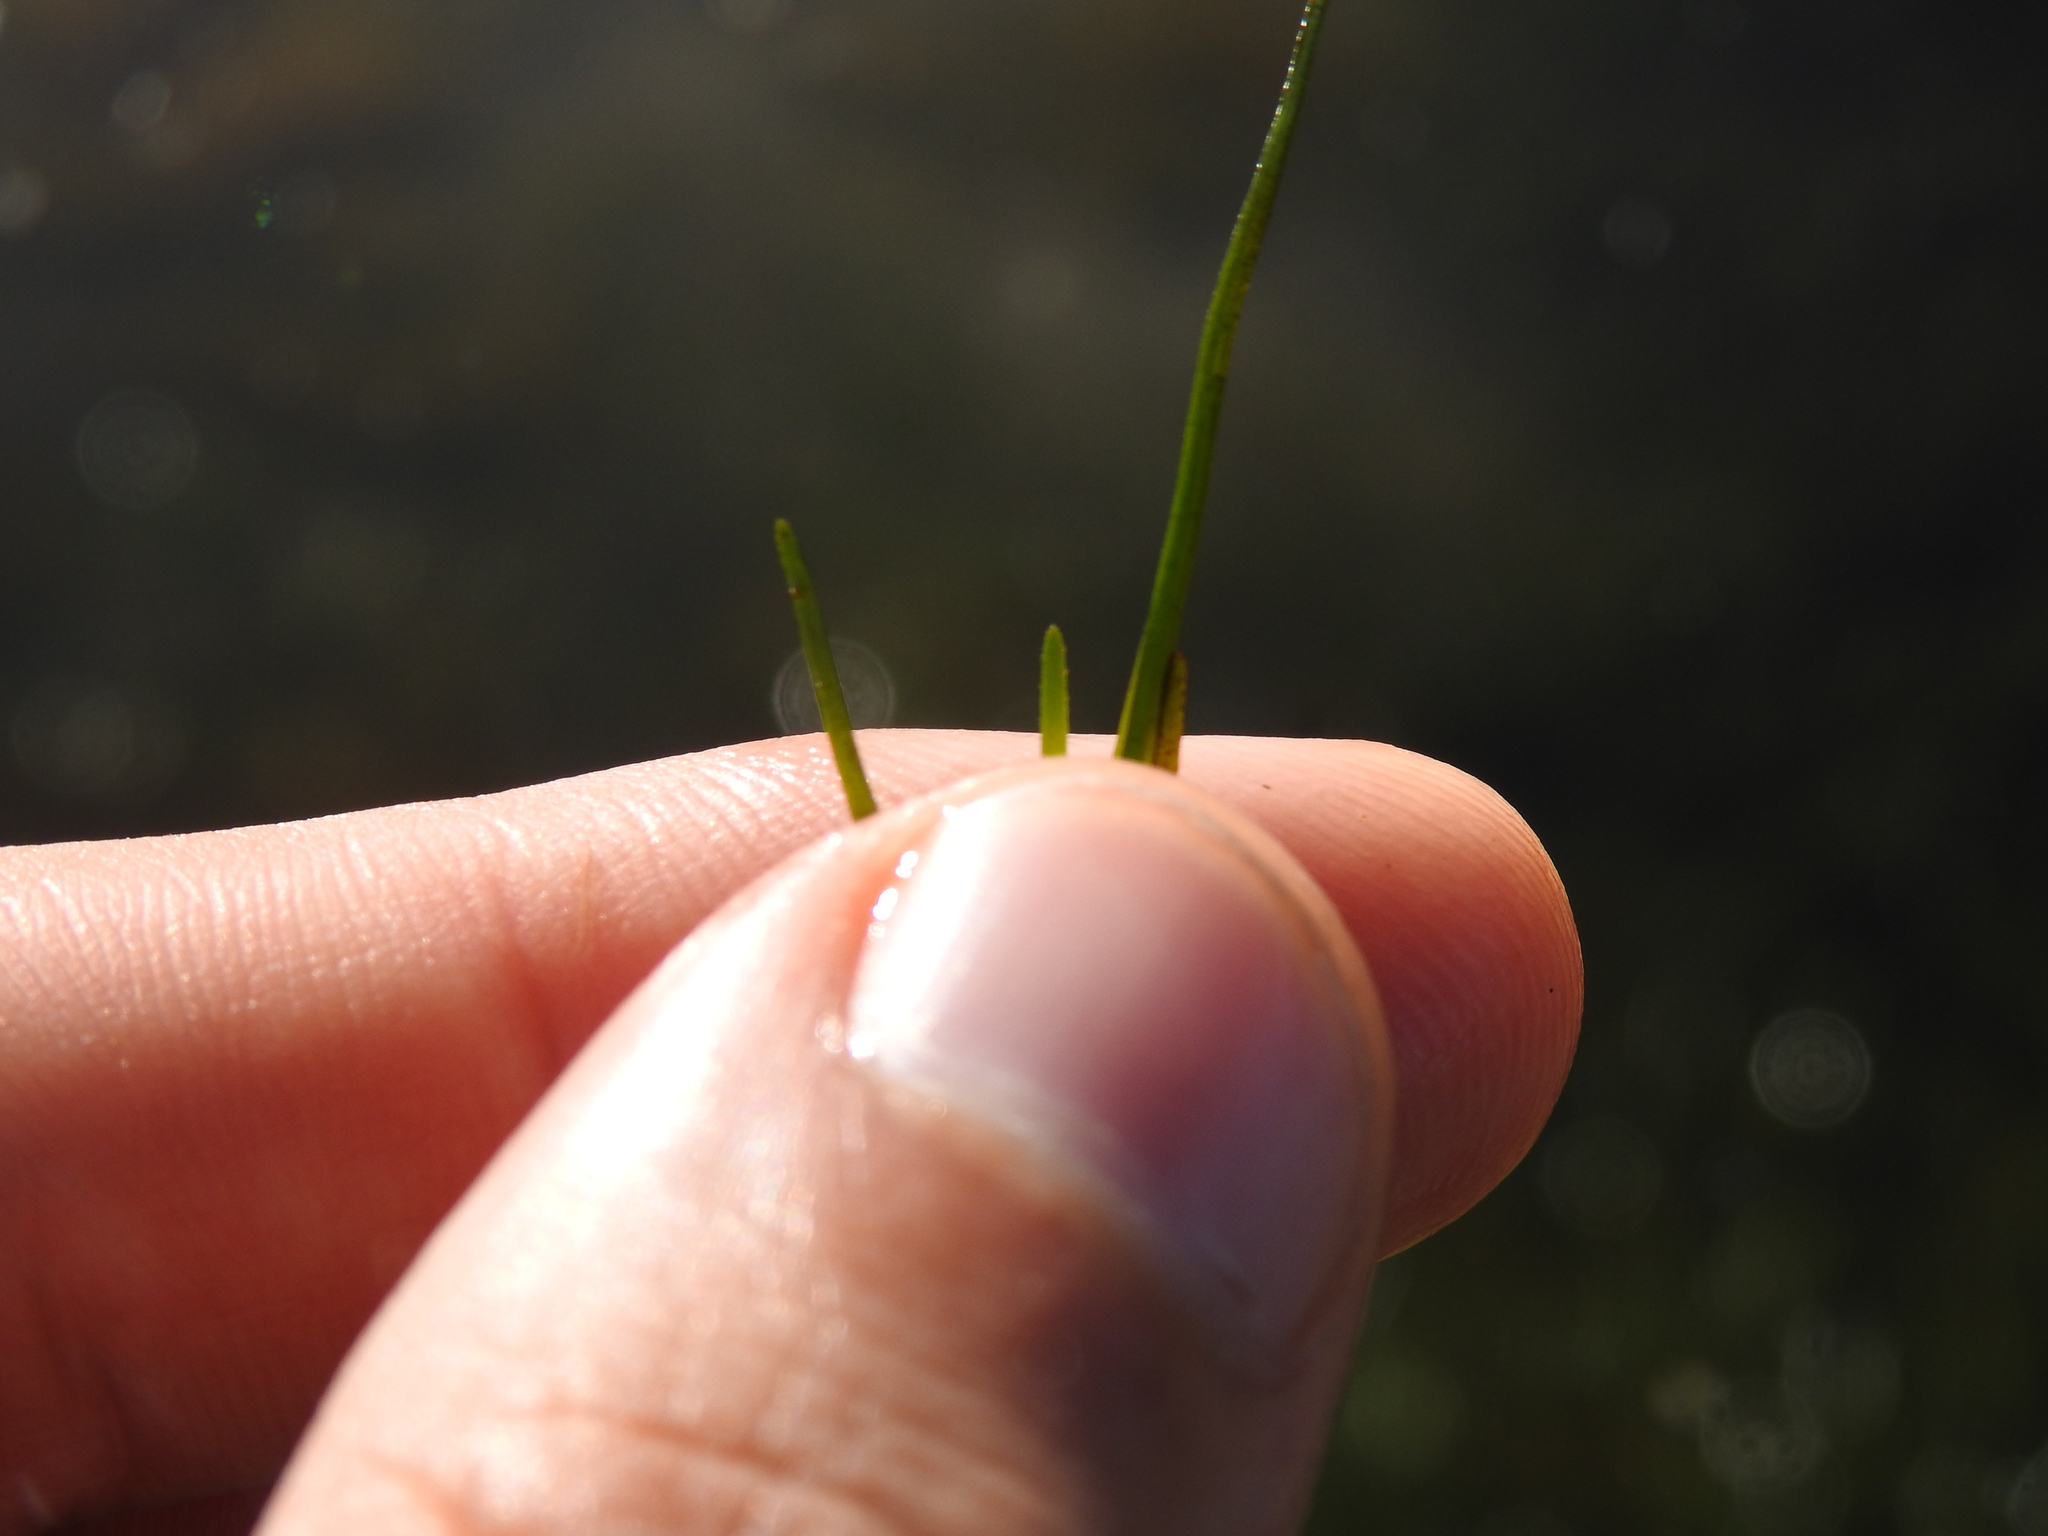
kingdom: Plantae
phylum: Tracheophyta
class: Liliopsida
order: Alismatales
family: Ruppiaceae
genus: Ruppia
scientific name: Ruppia cirrhosa
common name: Spiral tasselweed
